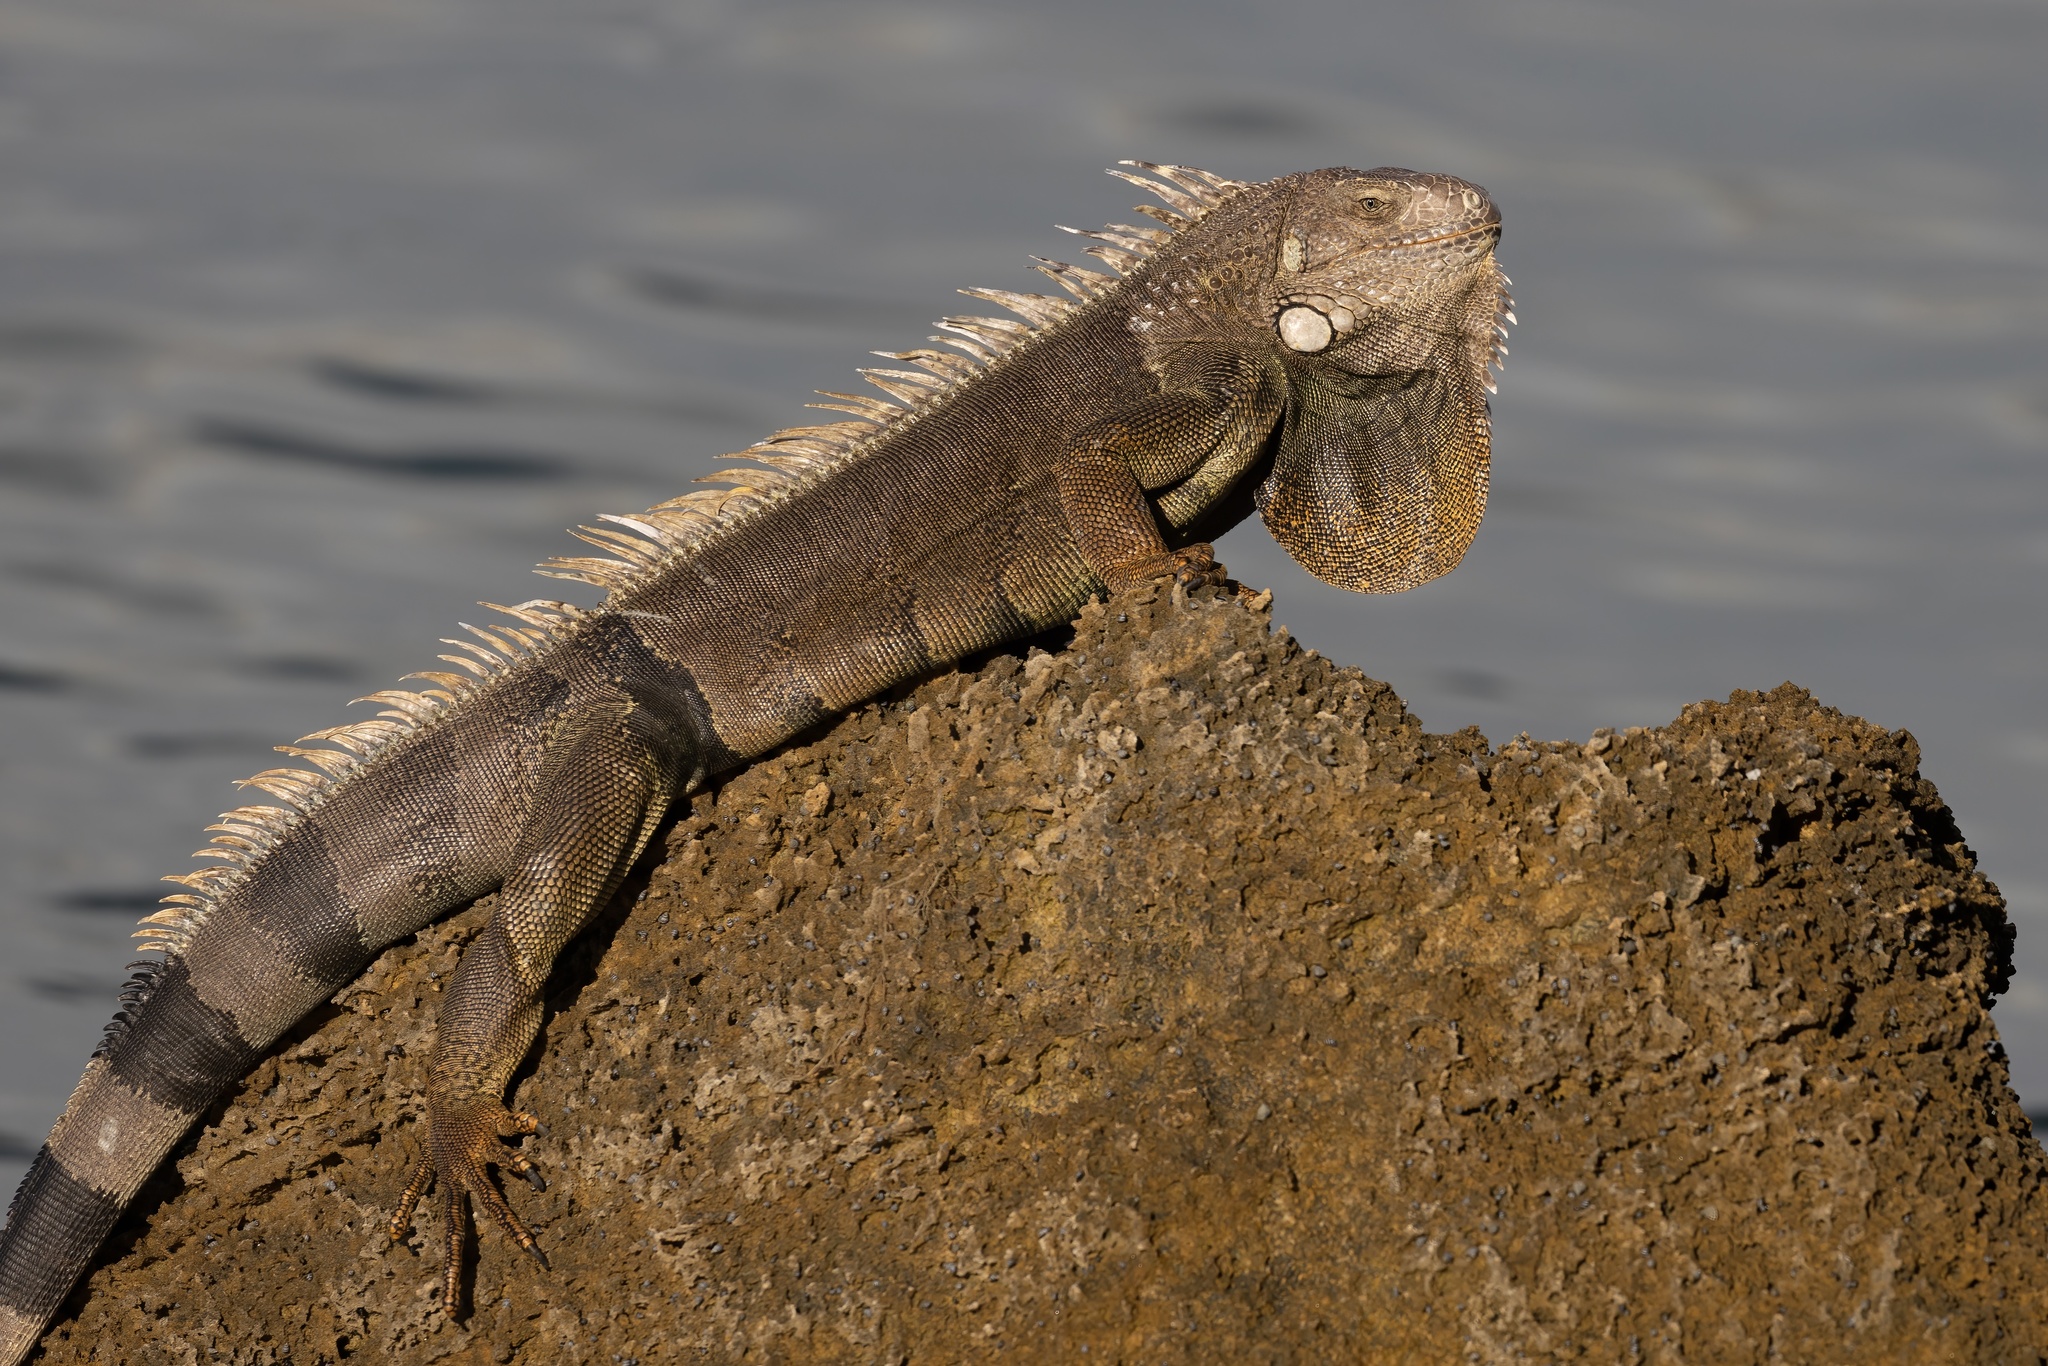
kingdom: Animalia
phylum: Chordata
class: Squamata
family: Iguanidae
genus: Iguana
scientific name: Iguana iguana
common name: Green iguana
